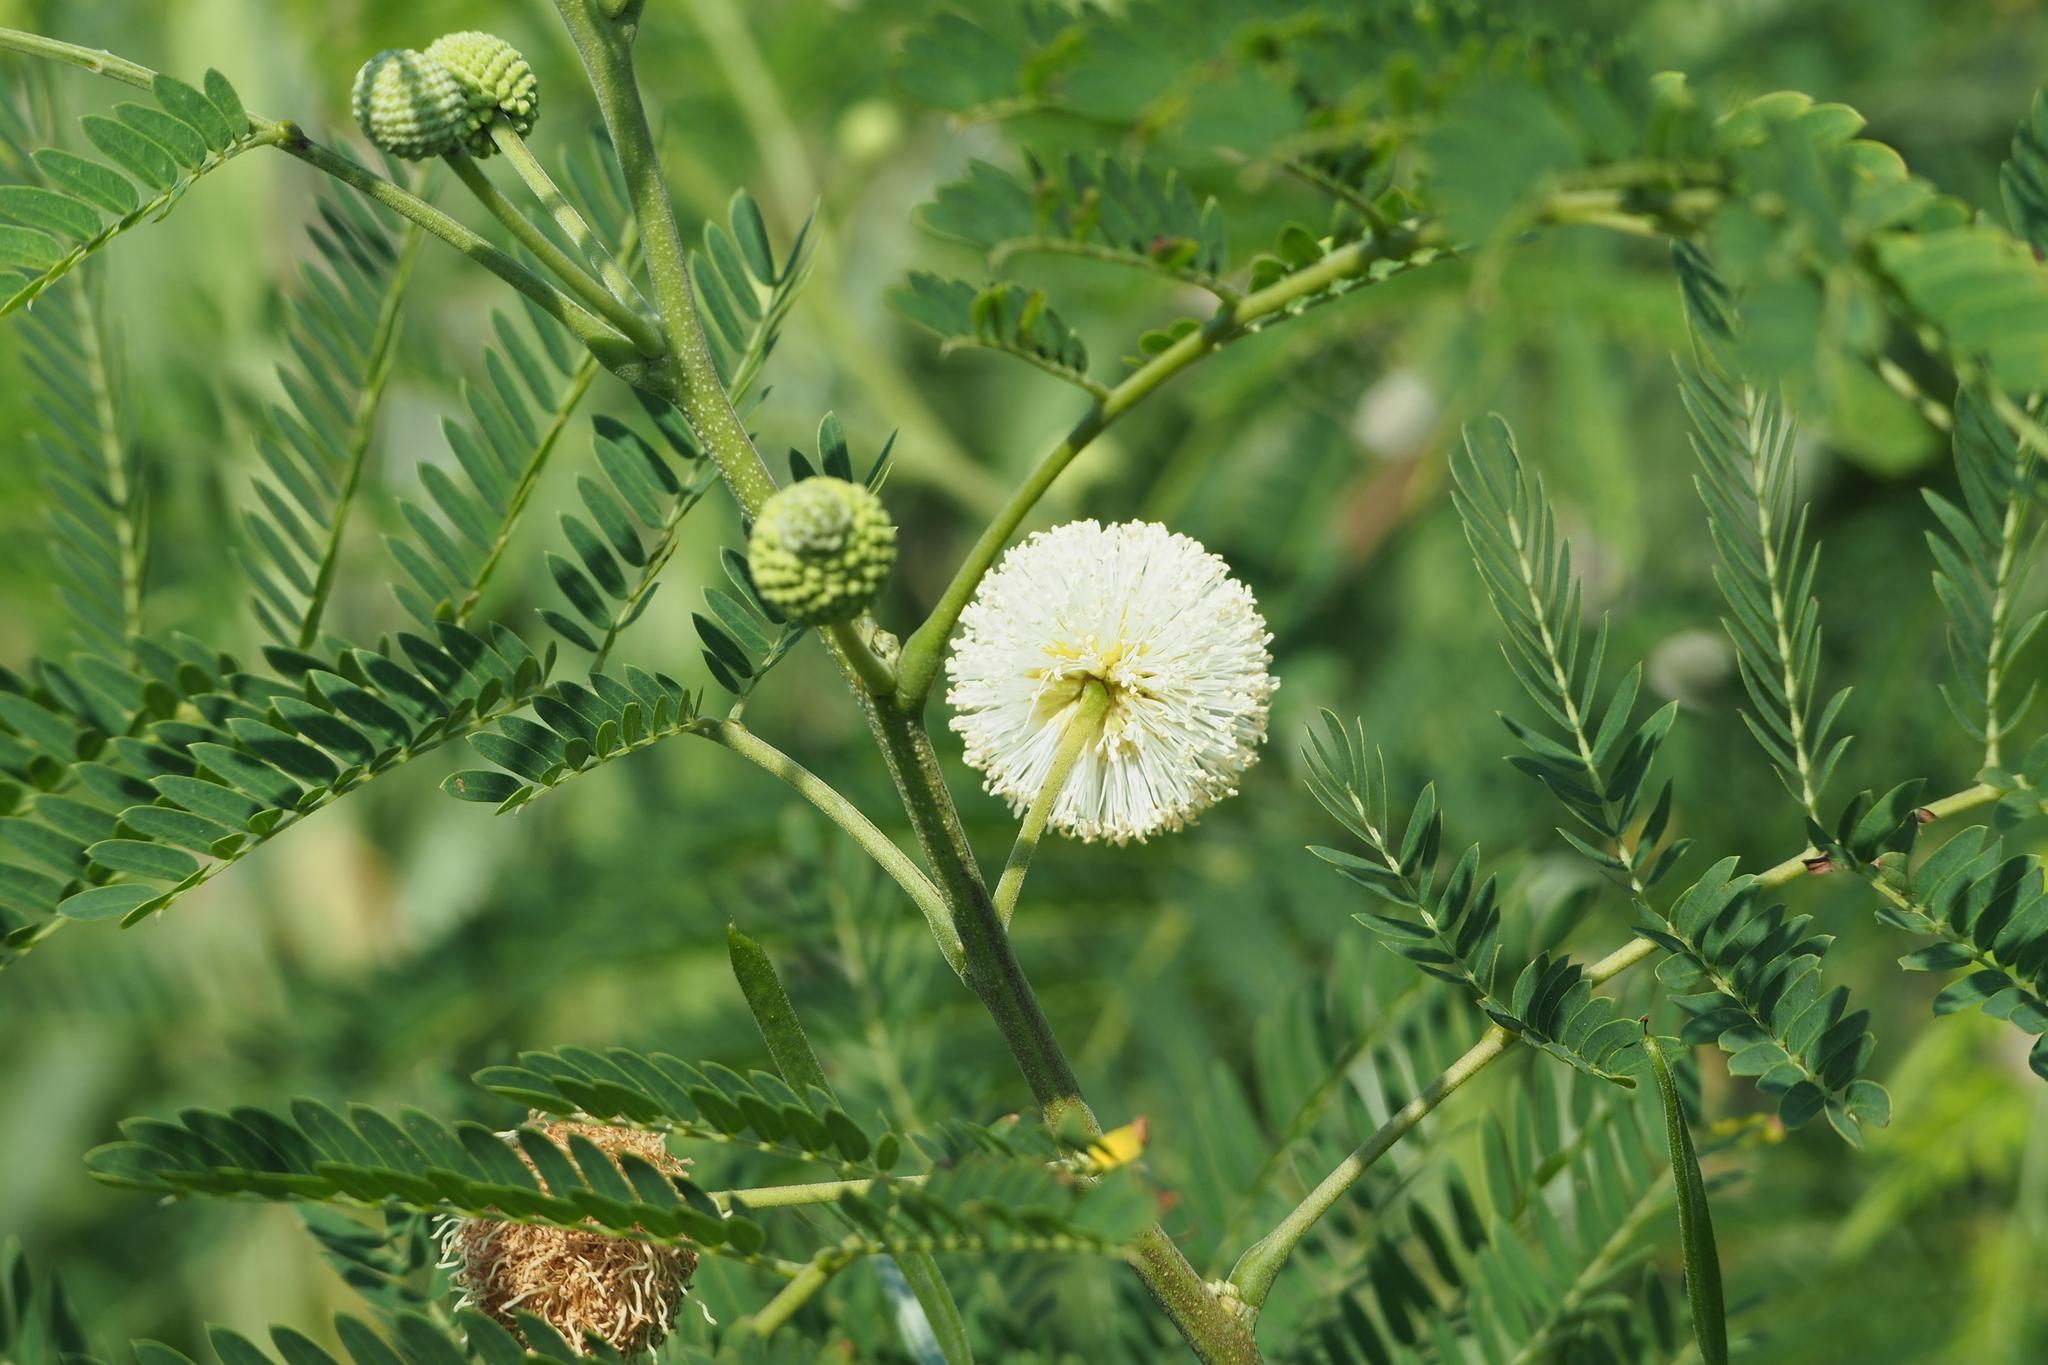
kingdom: Plantae
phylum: Tracheophyta
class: Magnoliopsida
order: Fabales
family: Fabaceae
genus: Leucaena
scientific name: Leucaena leucocephala
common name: White leadtree
